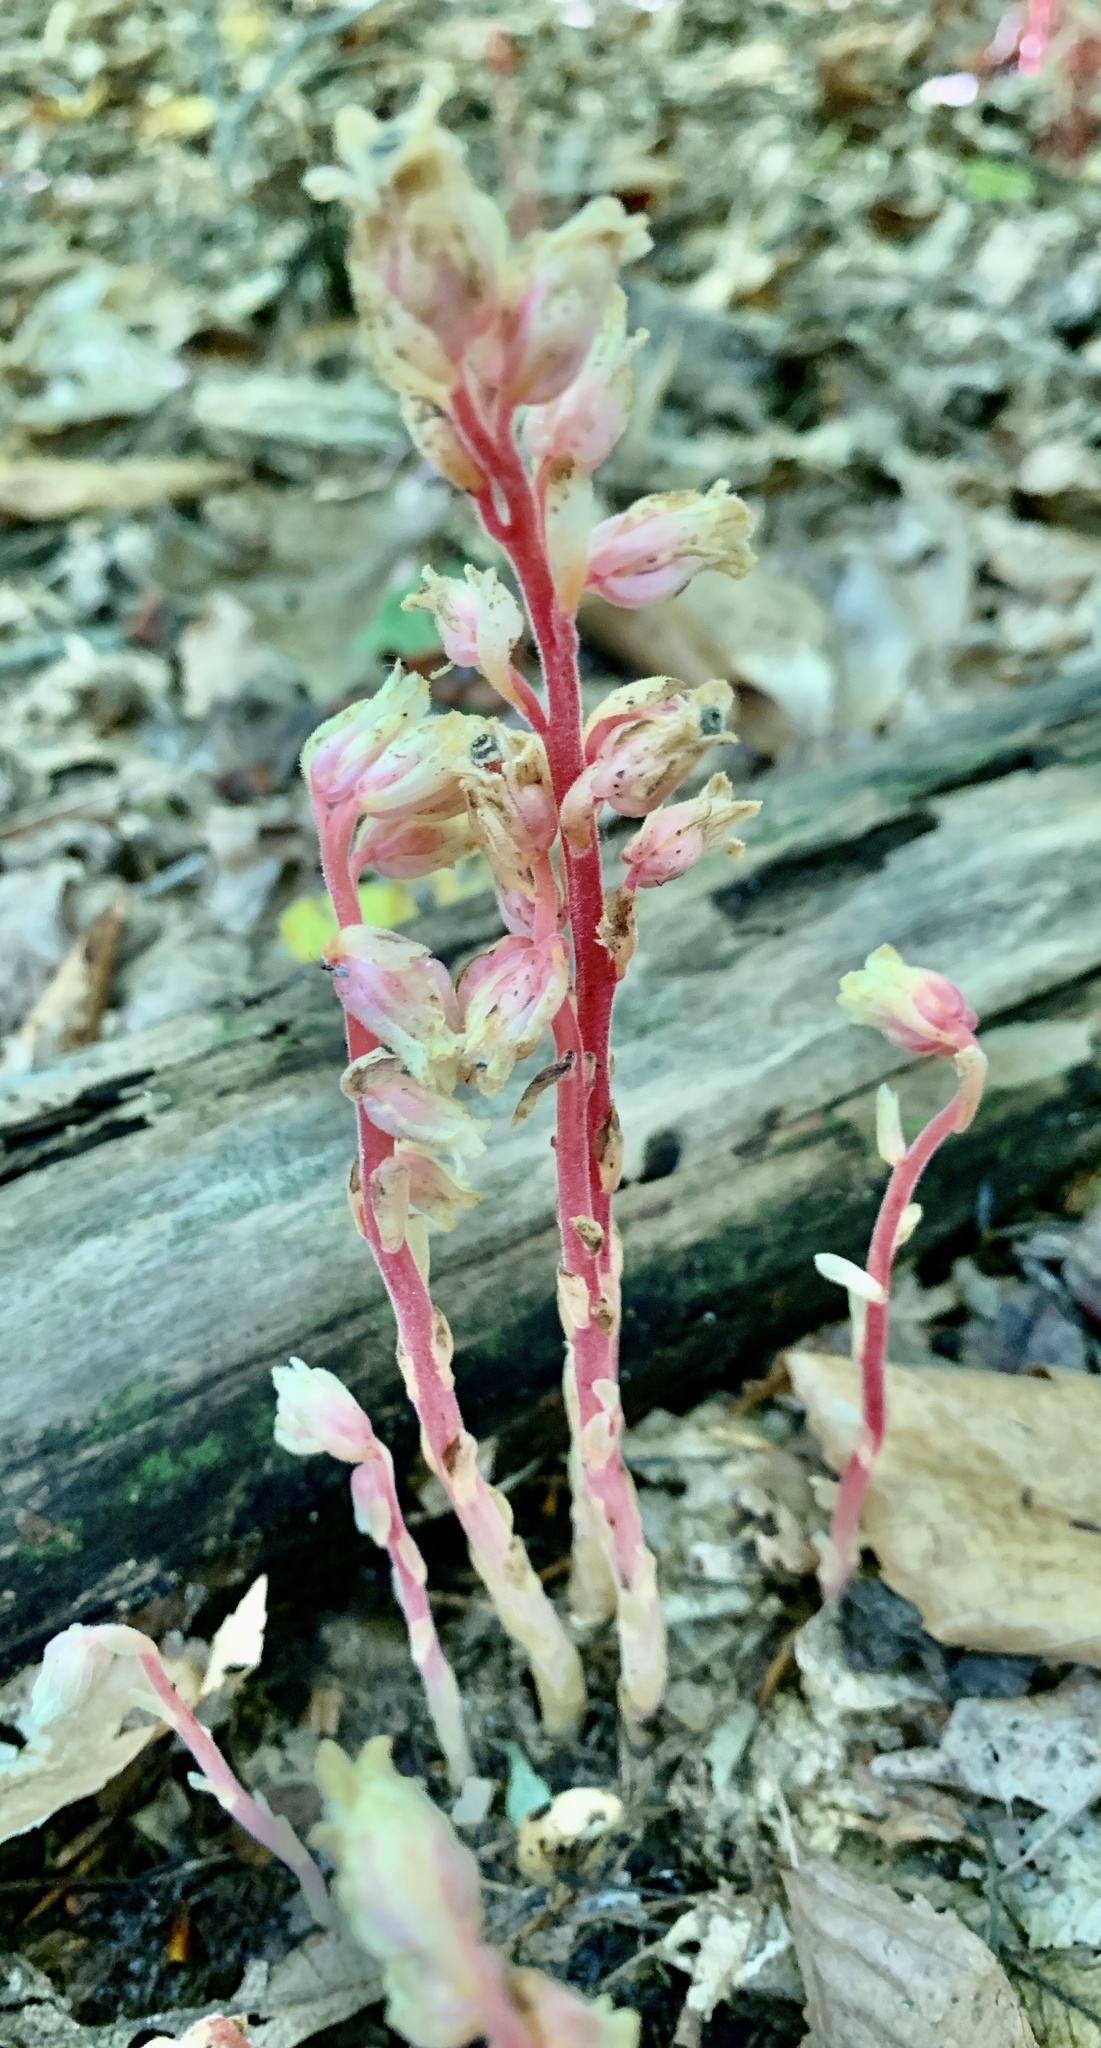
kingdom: Plantae
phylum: Tracheophyta
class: Magnoliopsida
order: Ericales
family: Ericaceae
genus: Hypopitys
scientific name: Hypopitys monotropa
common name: Yellow bird's-nest
